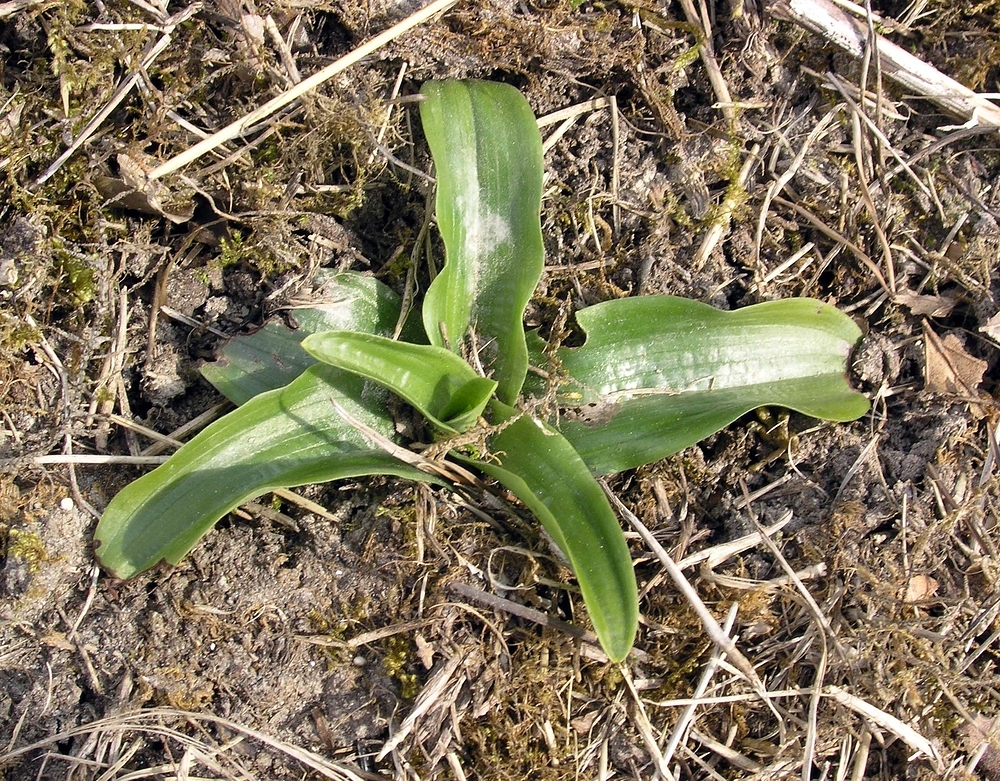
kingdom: Plantae
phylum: Tracheophyta
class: Liliopsida
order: Asparagales
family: Orchidaceae
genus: Orchis
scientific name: Orchis anthropophora
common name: Man orchid
